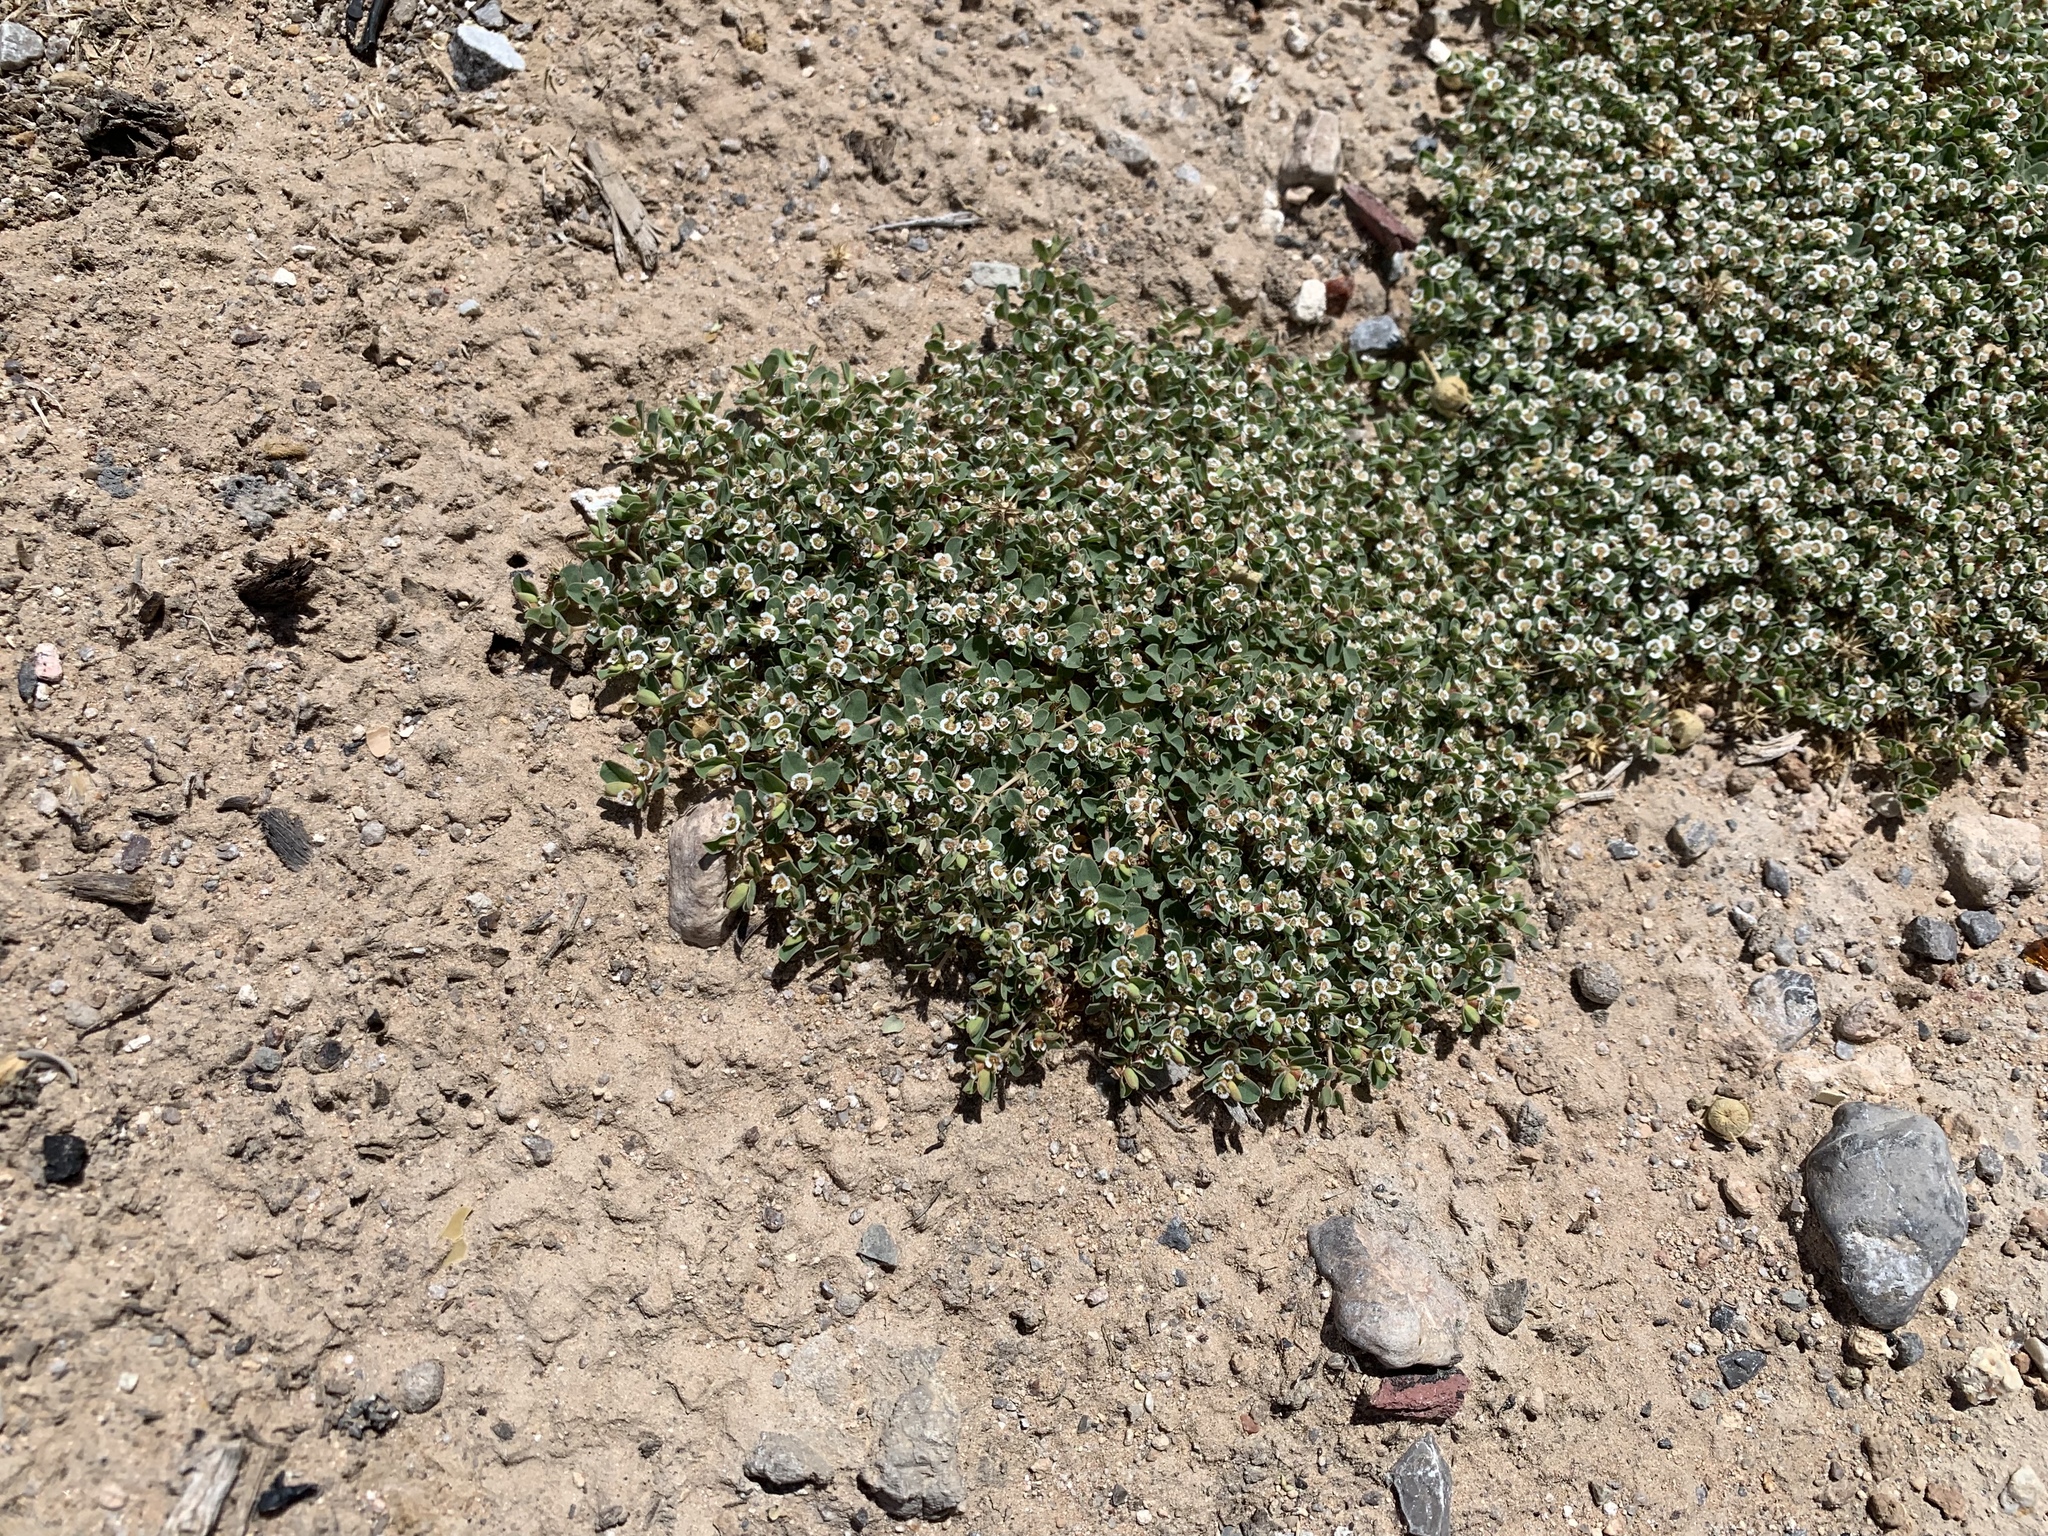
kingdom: Plantae
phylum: Tracheophyta
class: Magnoliopsida
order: Malpighiales
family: Euphorbiaceae
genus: Euphorbia
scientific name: Euphorbia albomarginata
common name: Whitemargin sandmat
